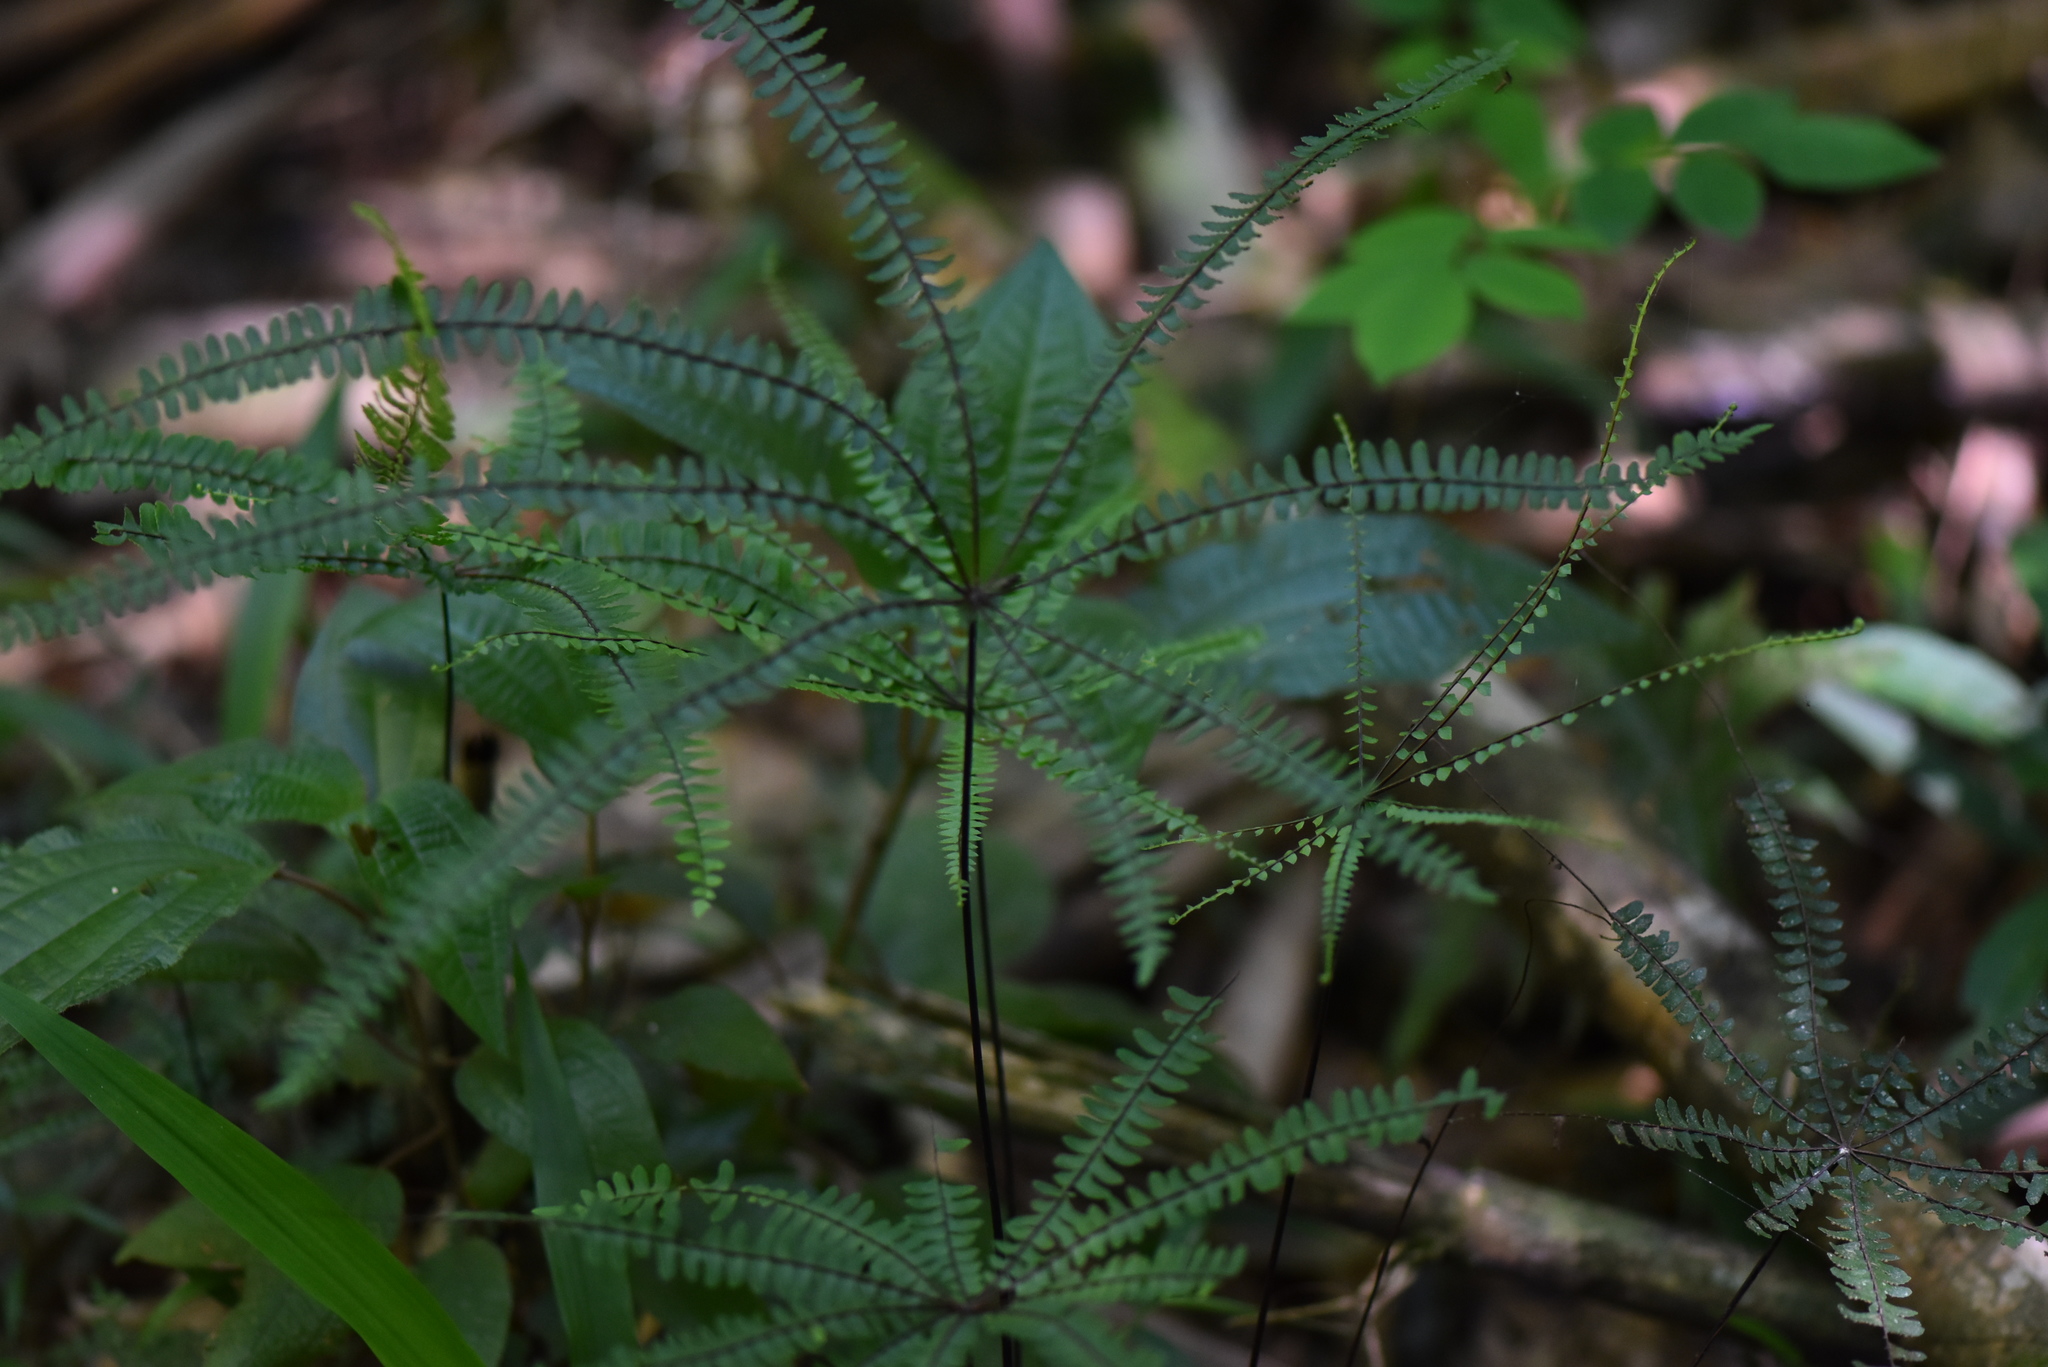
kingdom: Plantae
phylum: Tracheophyta
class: Polypodiopsida
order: Polypodiales
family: Pteridaceae
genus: Adiantopsis
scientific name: Adiantopsis radiata
